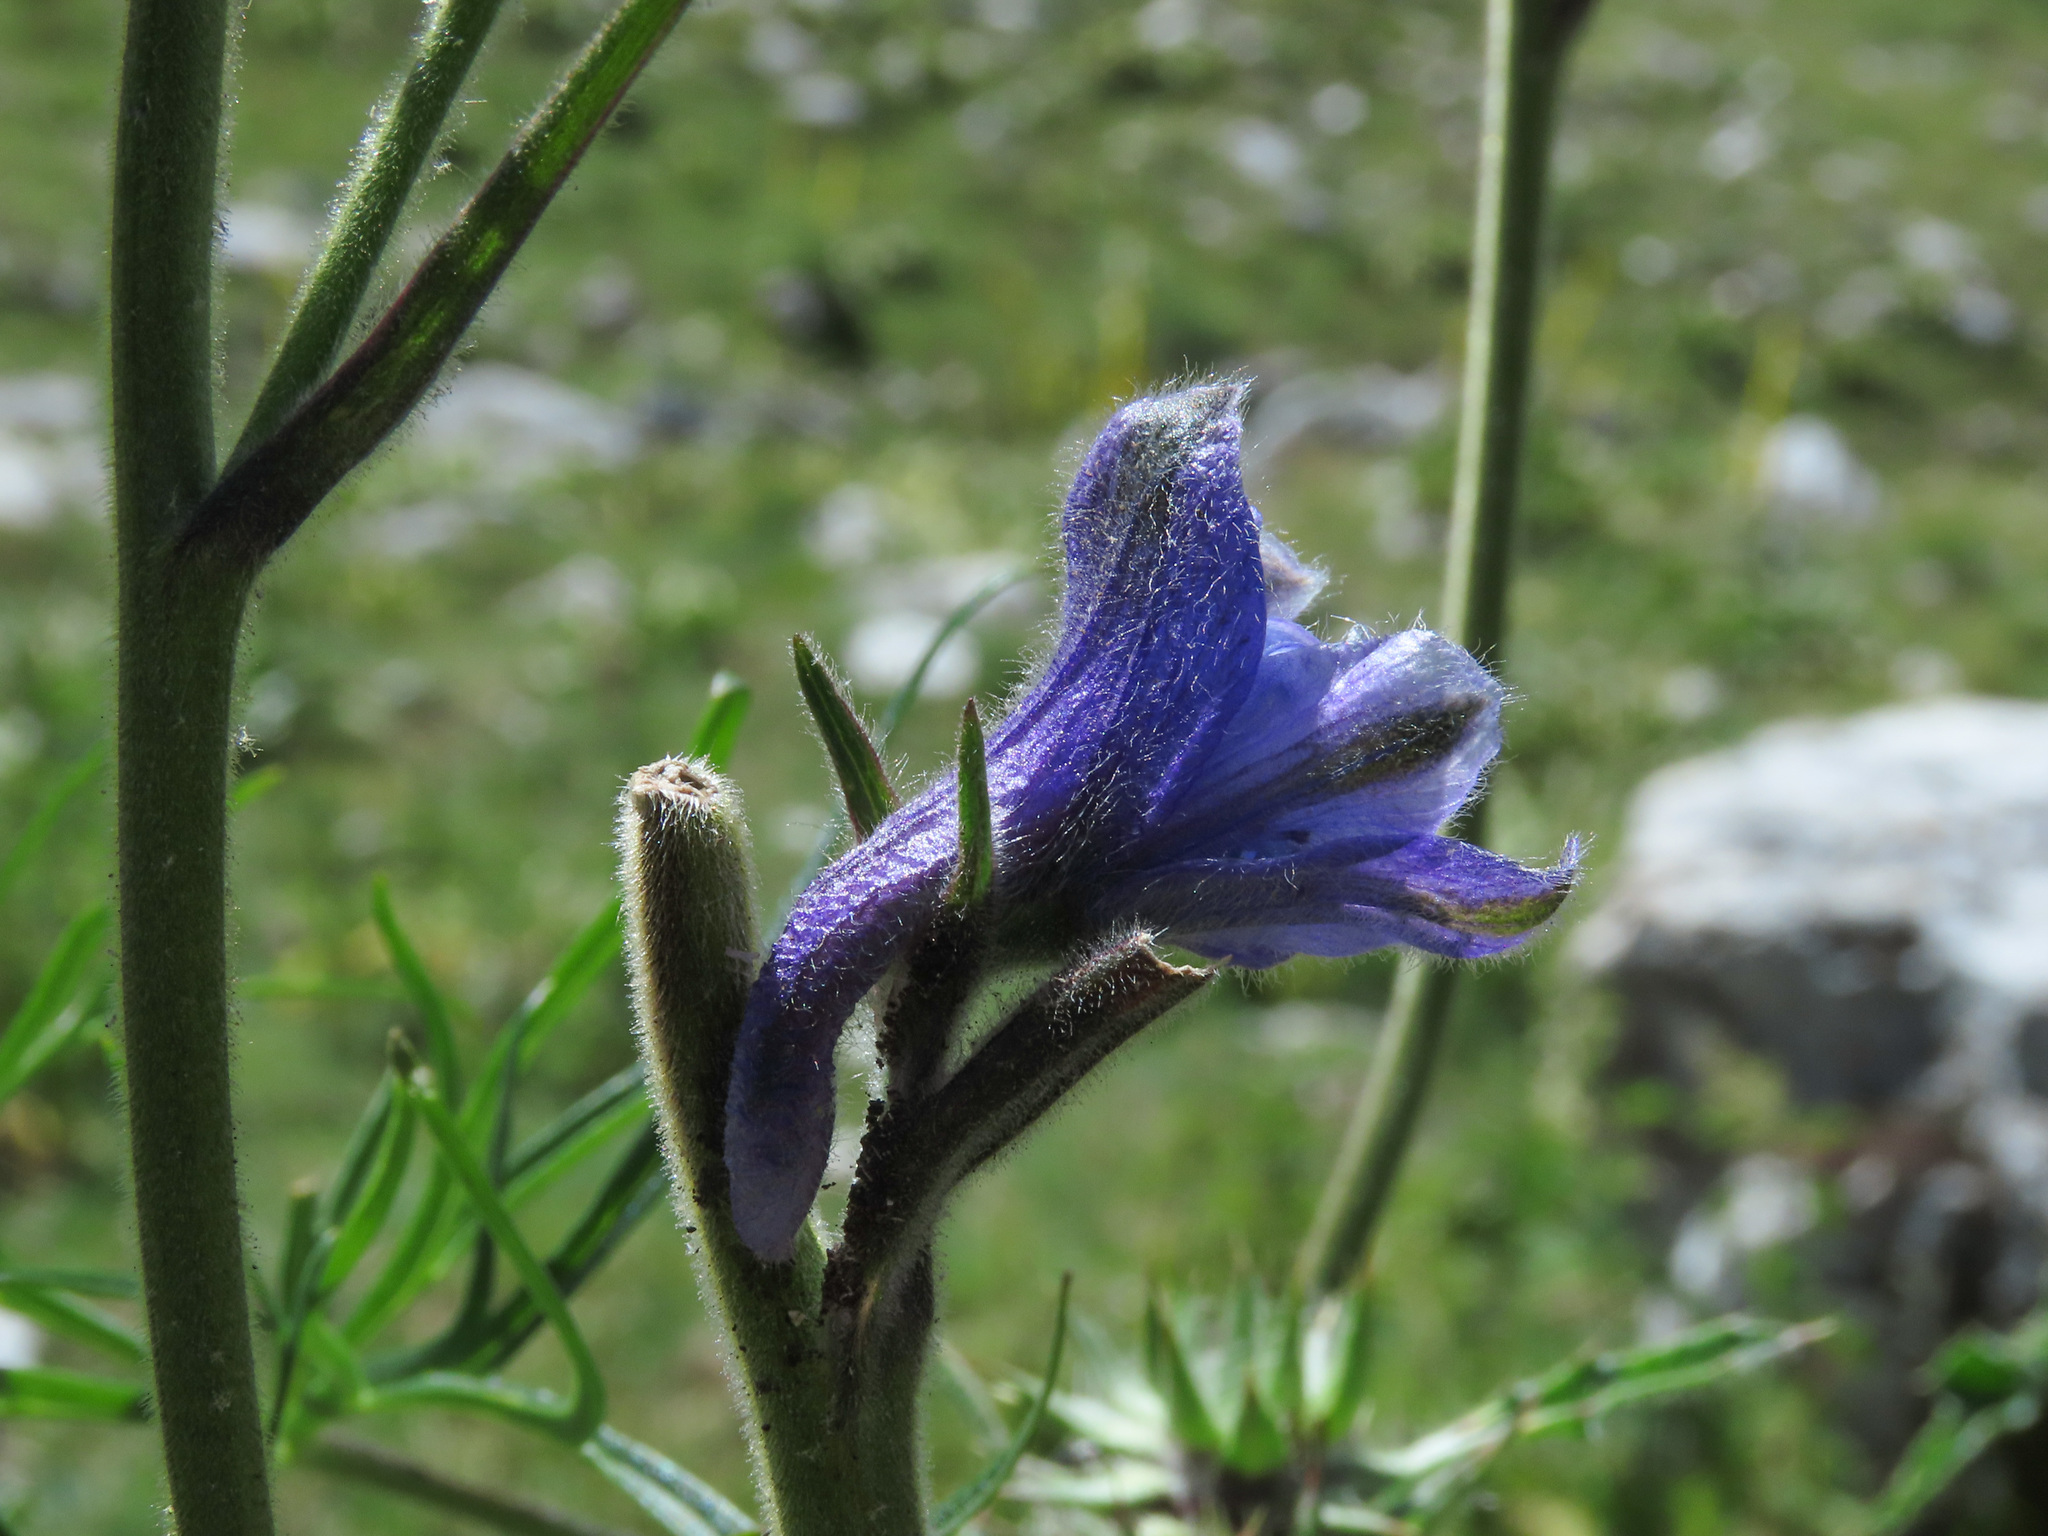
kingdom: Plantae
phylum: Tracheophyta
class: Magnoliopsida
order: Ranunculales
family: Ranunculaceae
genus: Delphinium
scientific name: Delphinium fissum
